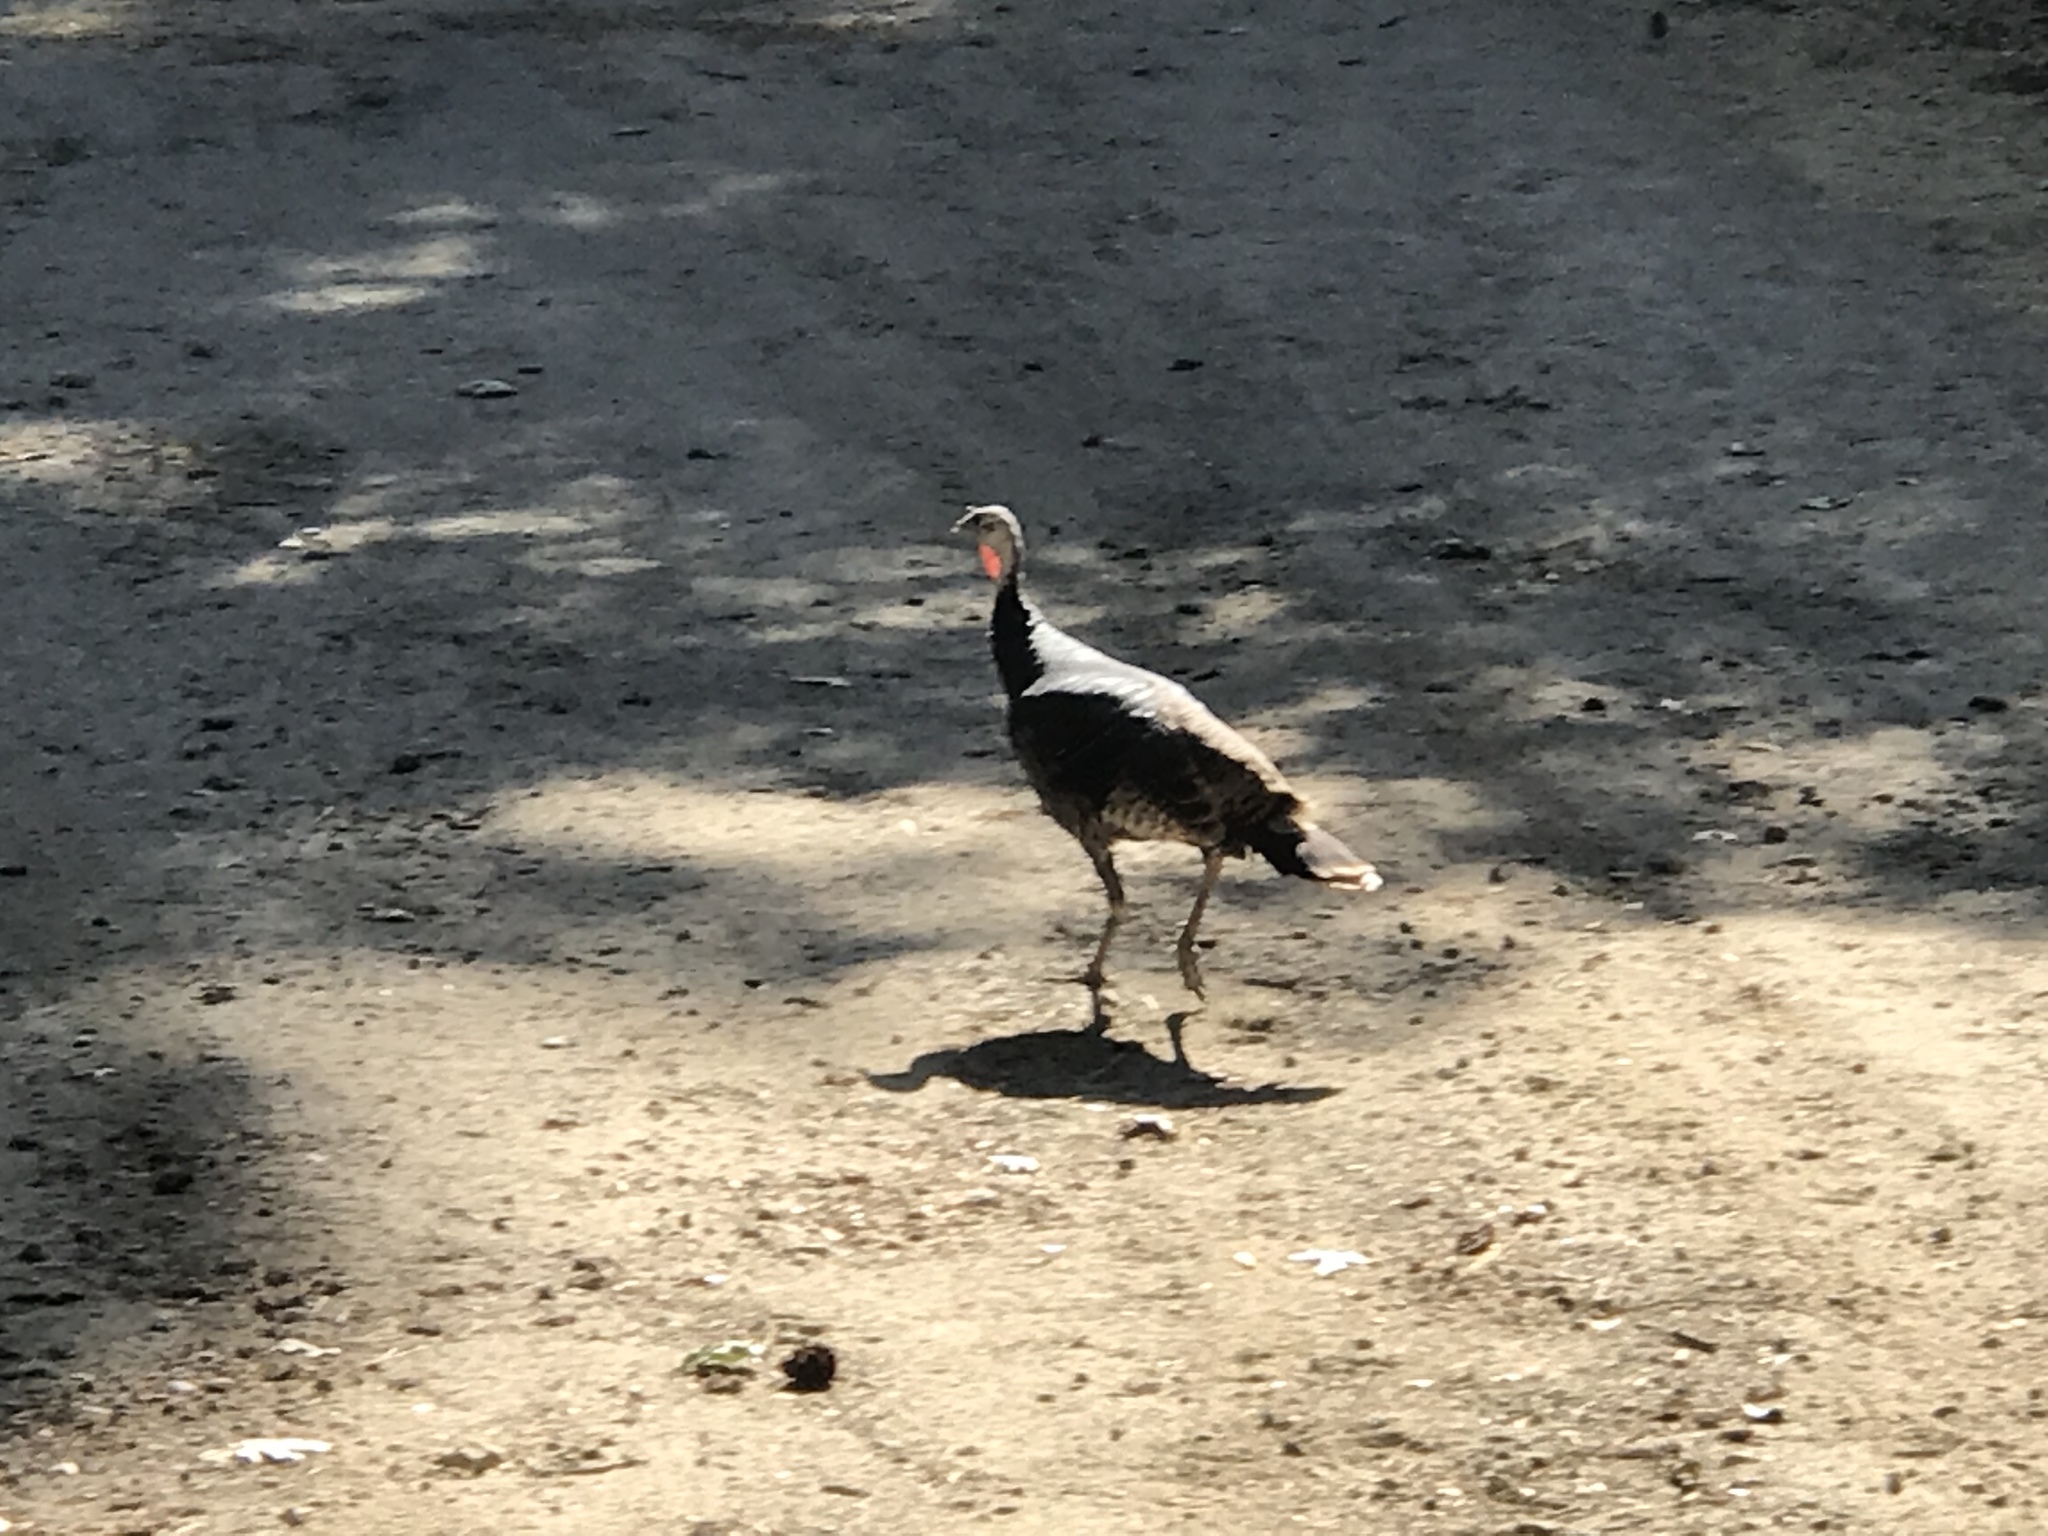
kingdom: Animalia
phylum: Chordata
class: Aves
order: Galliformes
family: Phasianidae
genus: Meleagris
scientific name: Meleagris gallopavo
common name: Wild turkey
